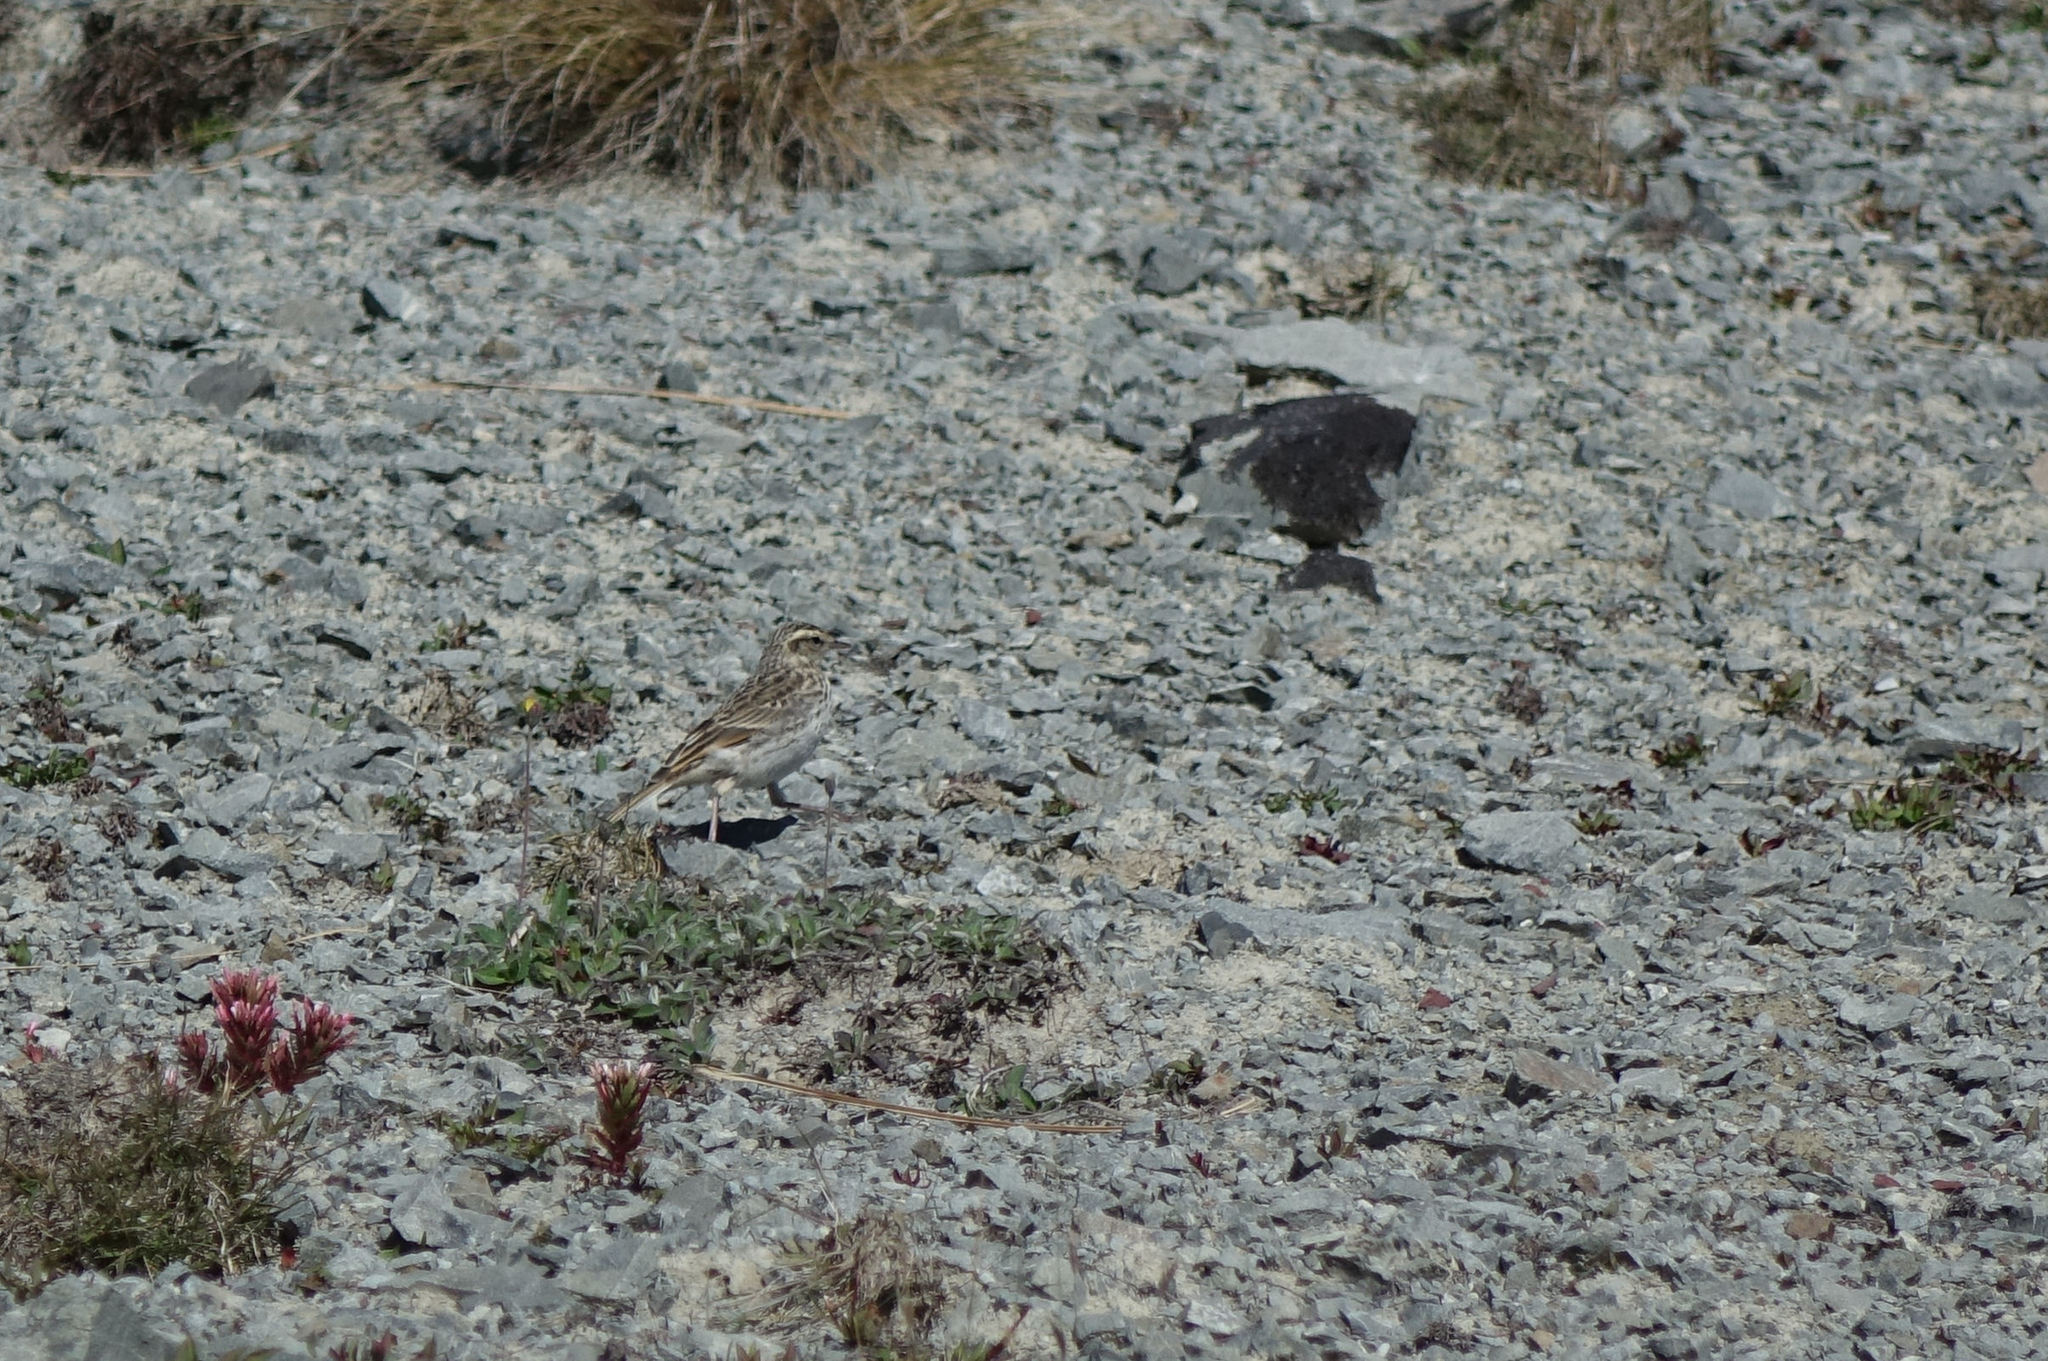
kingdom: Animalia
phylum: Chordata
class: Aves
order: Passeriformes
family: Motacillidae
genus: Anthus
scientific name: Anthus novaeseelandiae
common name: New zealand pipit
